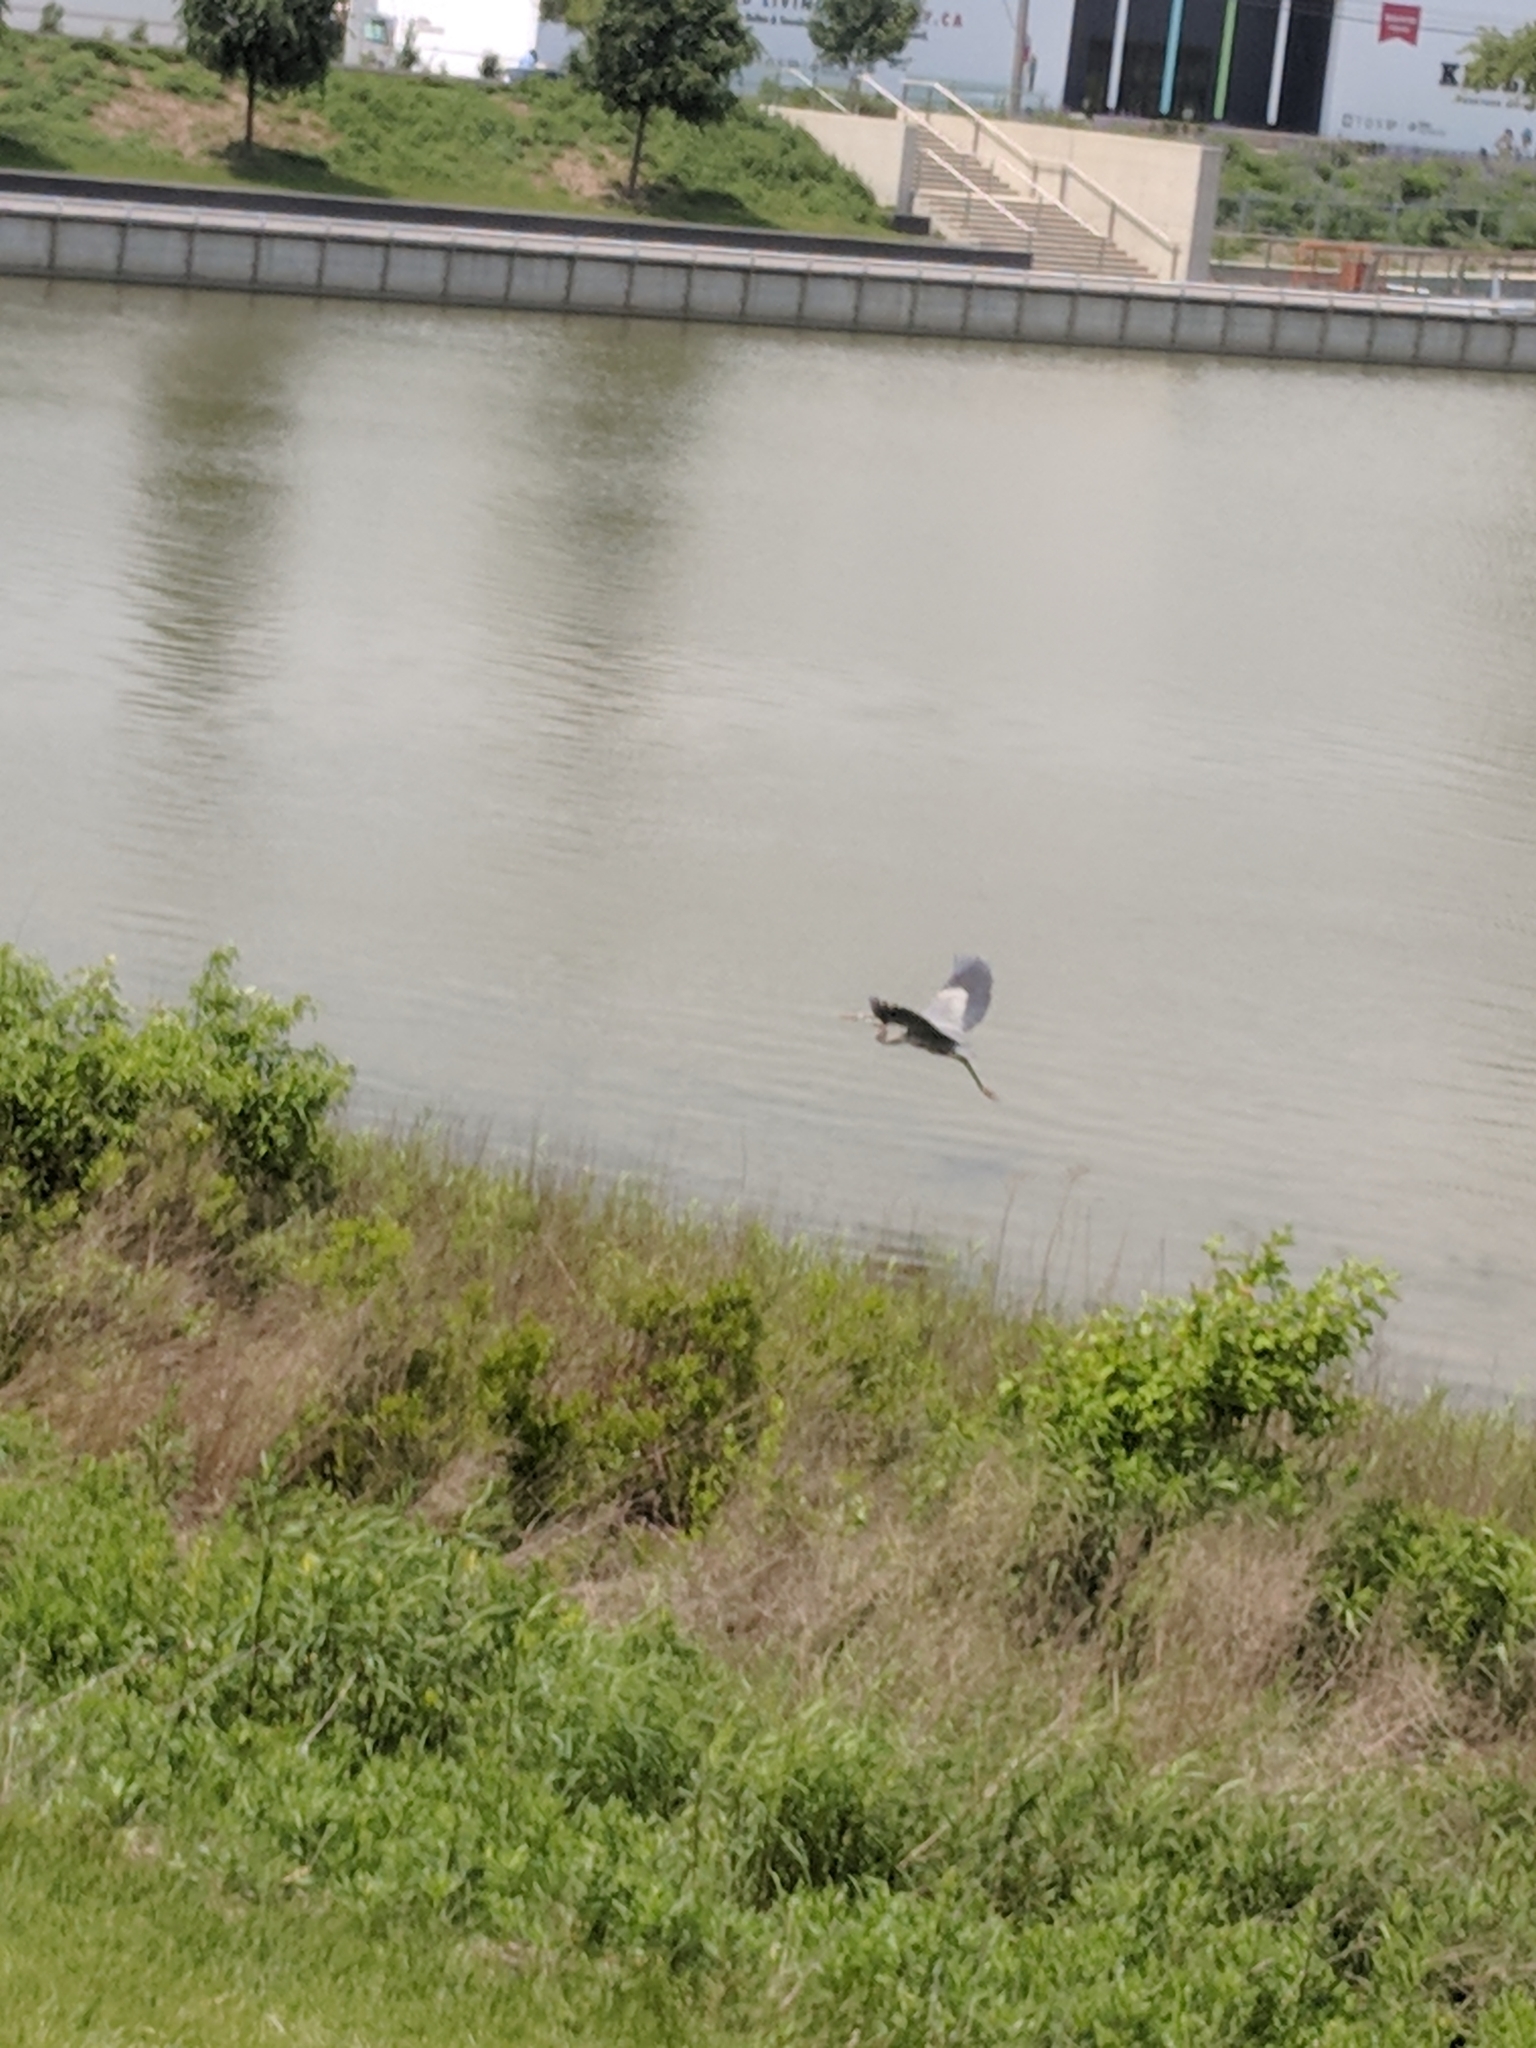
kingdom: Animalia
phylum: Chordata
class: Aves
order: Pelecaniformes
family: Ardeidae
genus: Ardea
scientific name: Ardea herodias
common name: Great blue heron
